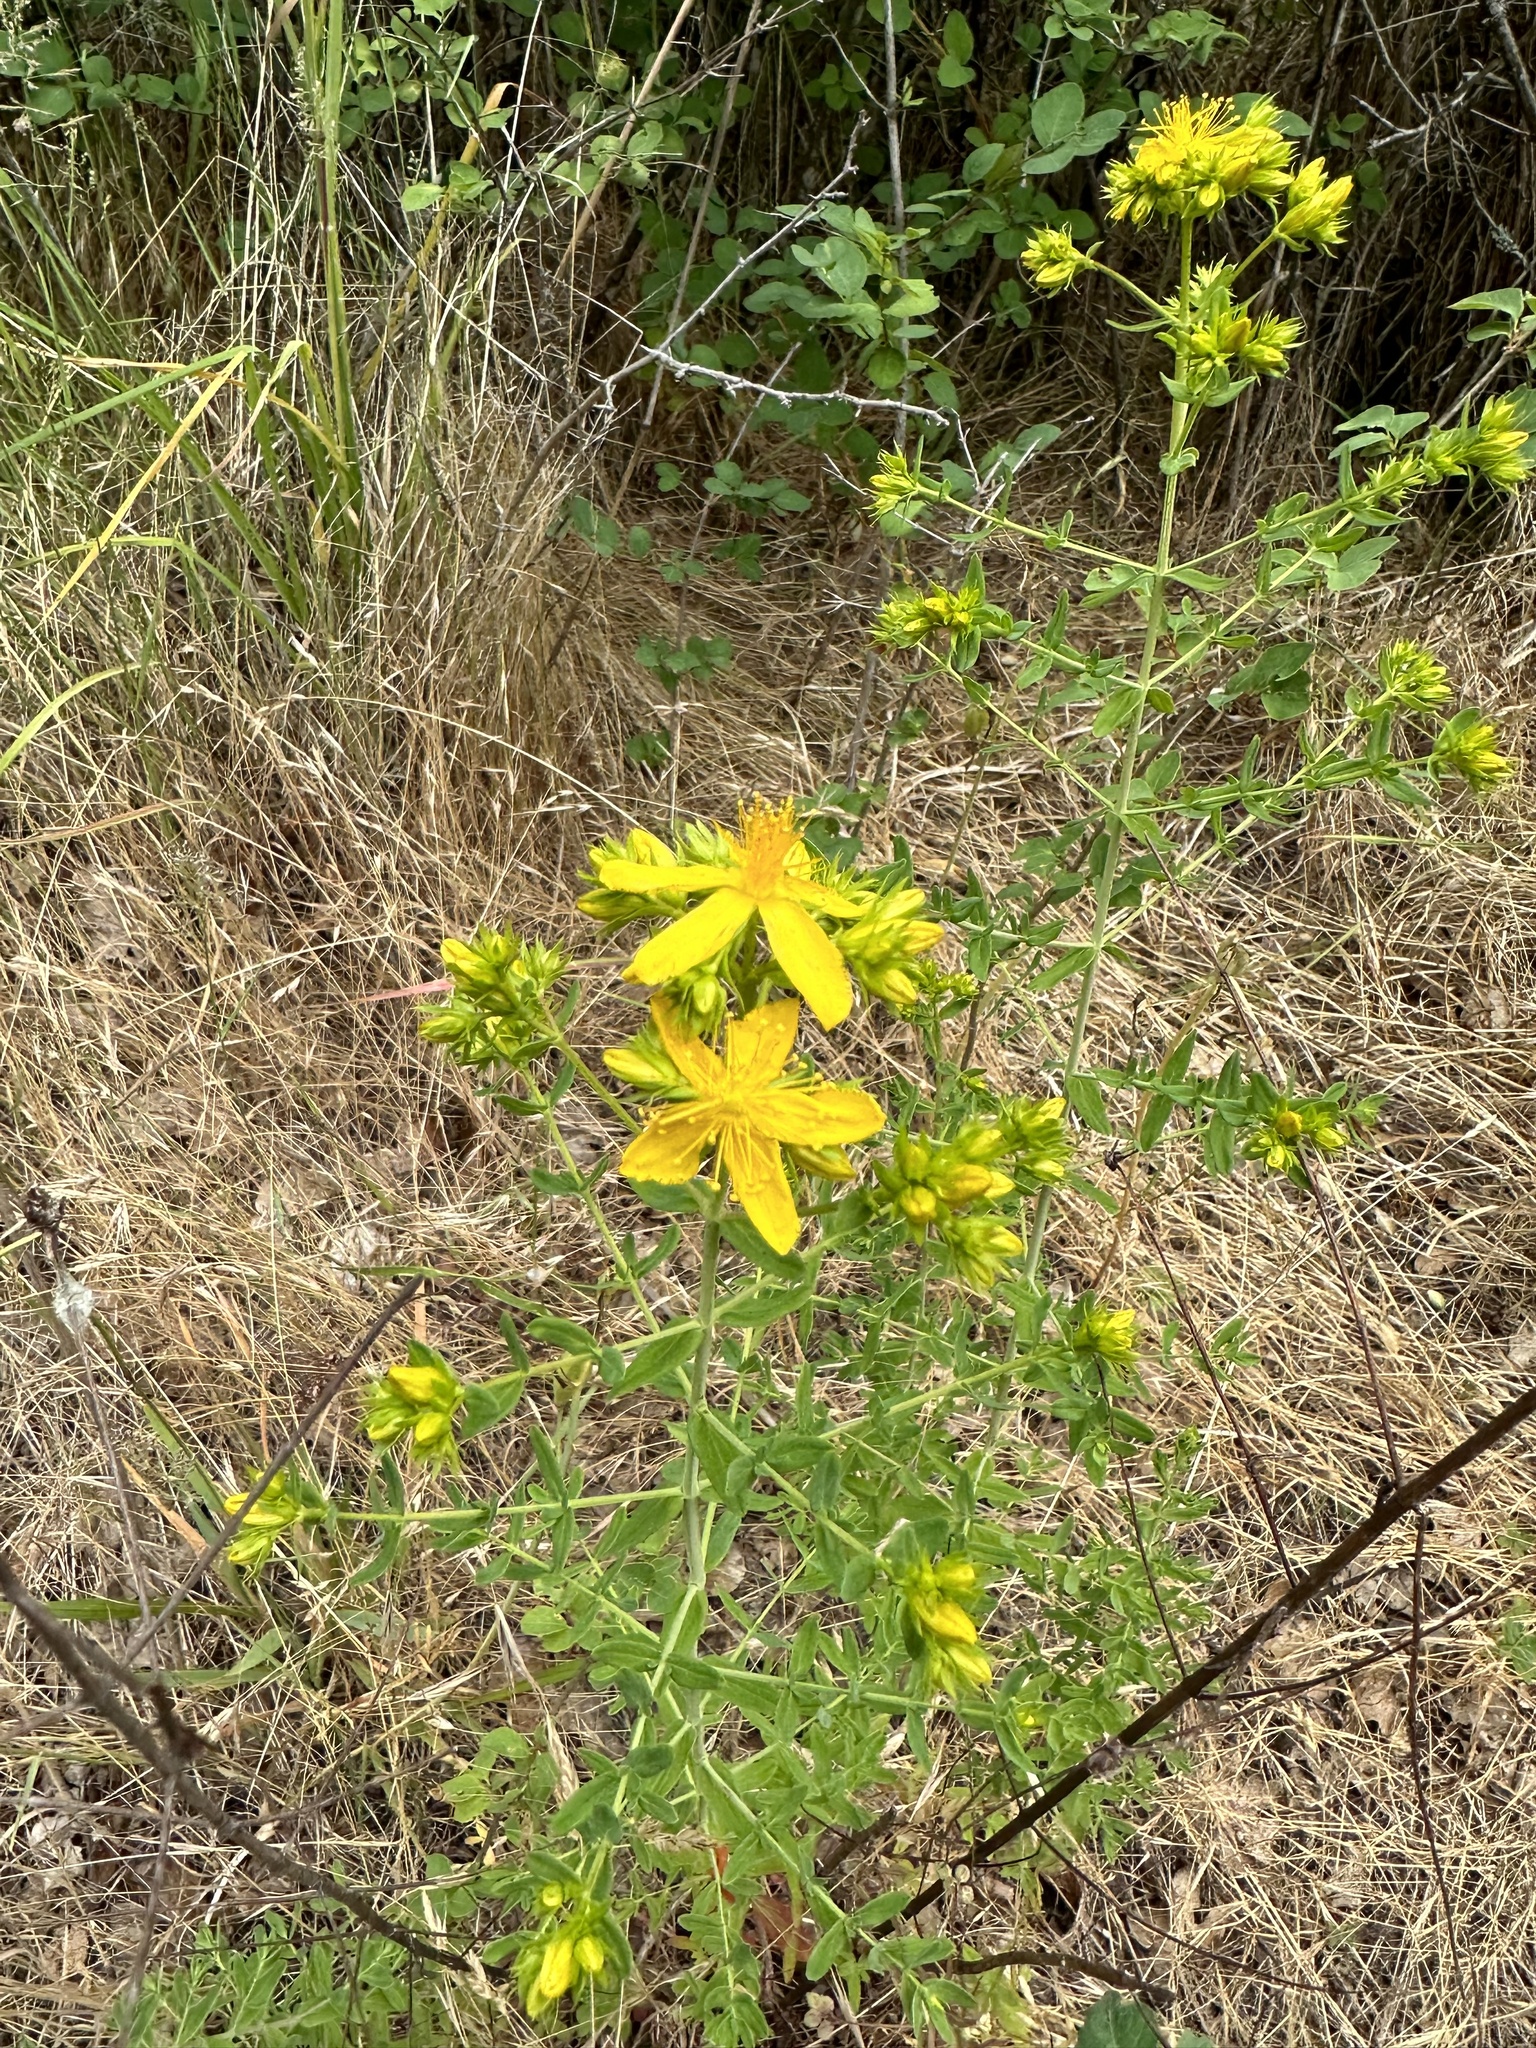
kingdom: Plantae
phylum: Tracheophyta
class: Magnoliopsida
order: Malpighiales
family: Hypericaceae
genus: Hypericum
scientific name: Hypericum perforatum
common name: Common st. johnswort
